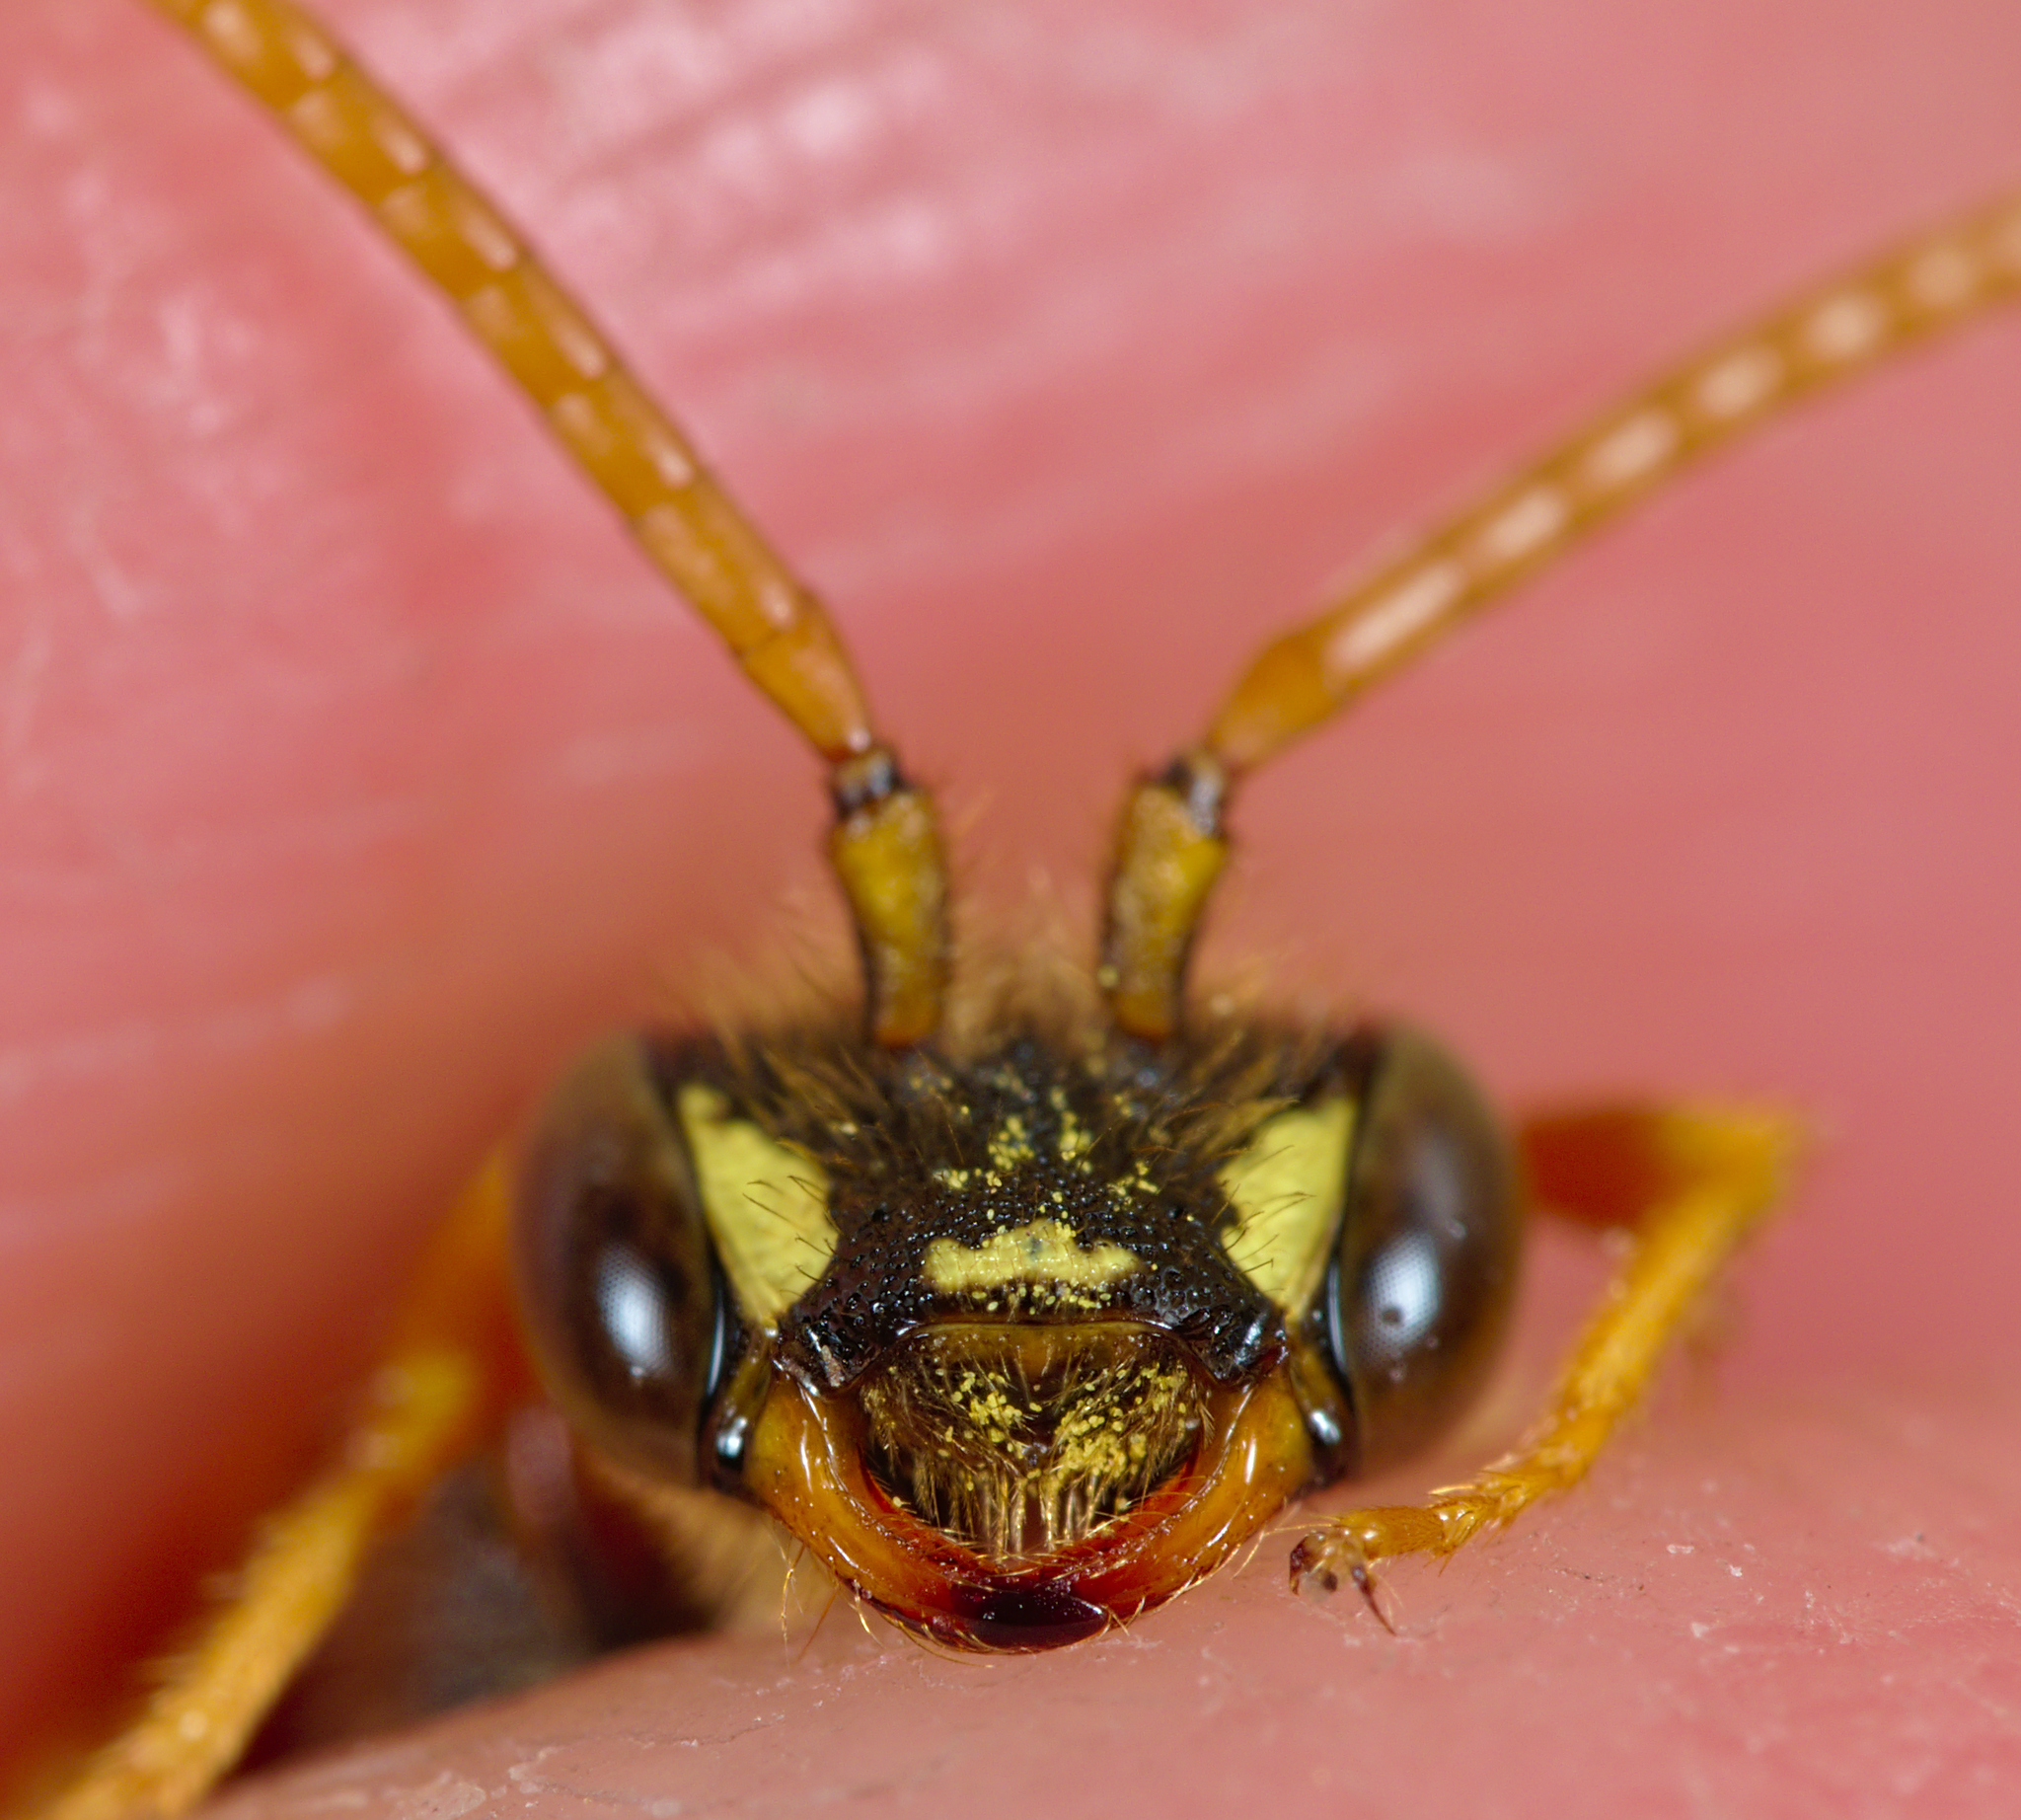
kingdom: Animalia
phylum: Arthropoda
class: Insecta
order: Hymenoptera
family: Apidae
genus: Nomada
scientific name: Nomada goodeniana
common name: Gooden's nomad bee
